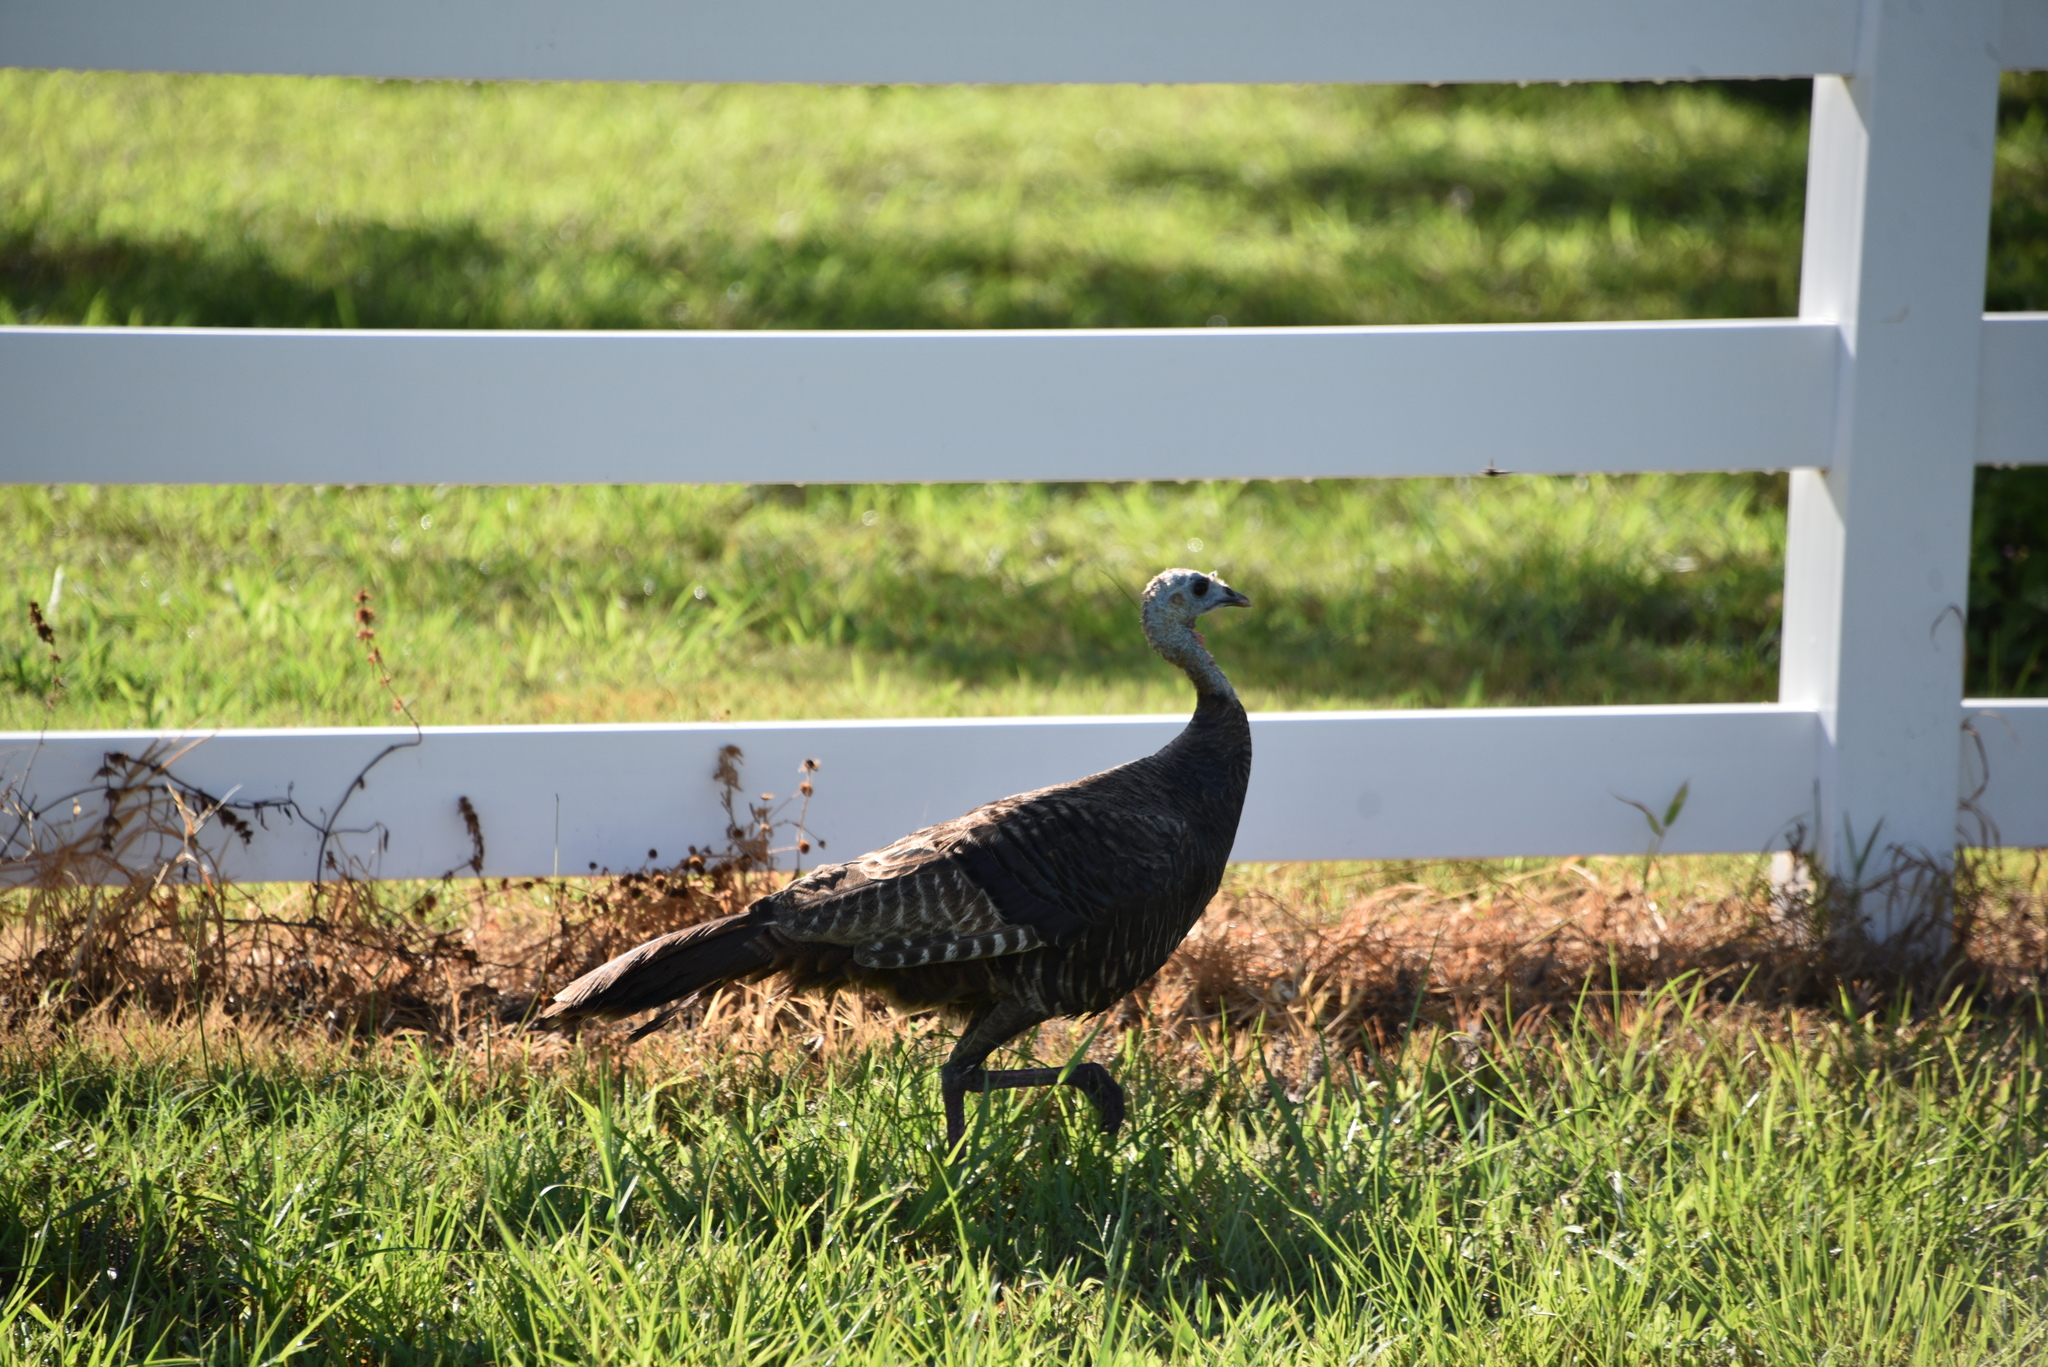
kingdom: Animalia
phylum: Chordata
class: Aves
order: Galliformes
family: Phasianidae
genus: Meleagris
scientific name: Meleagris gallopavo
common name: Wild turkey
